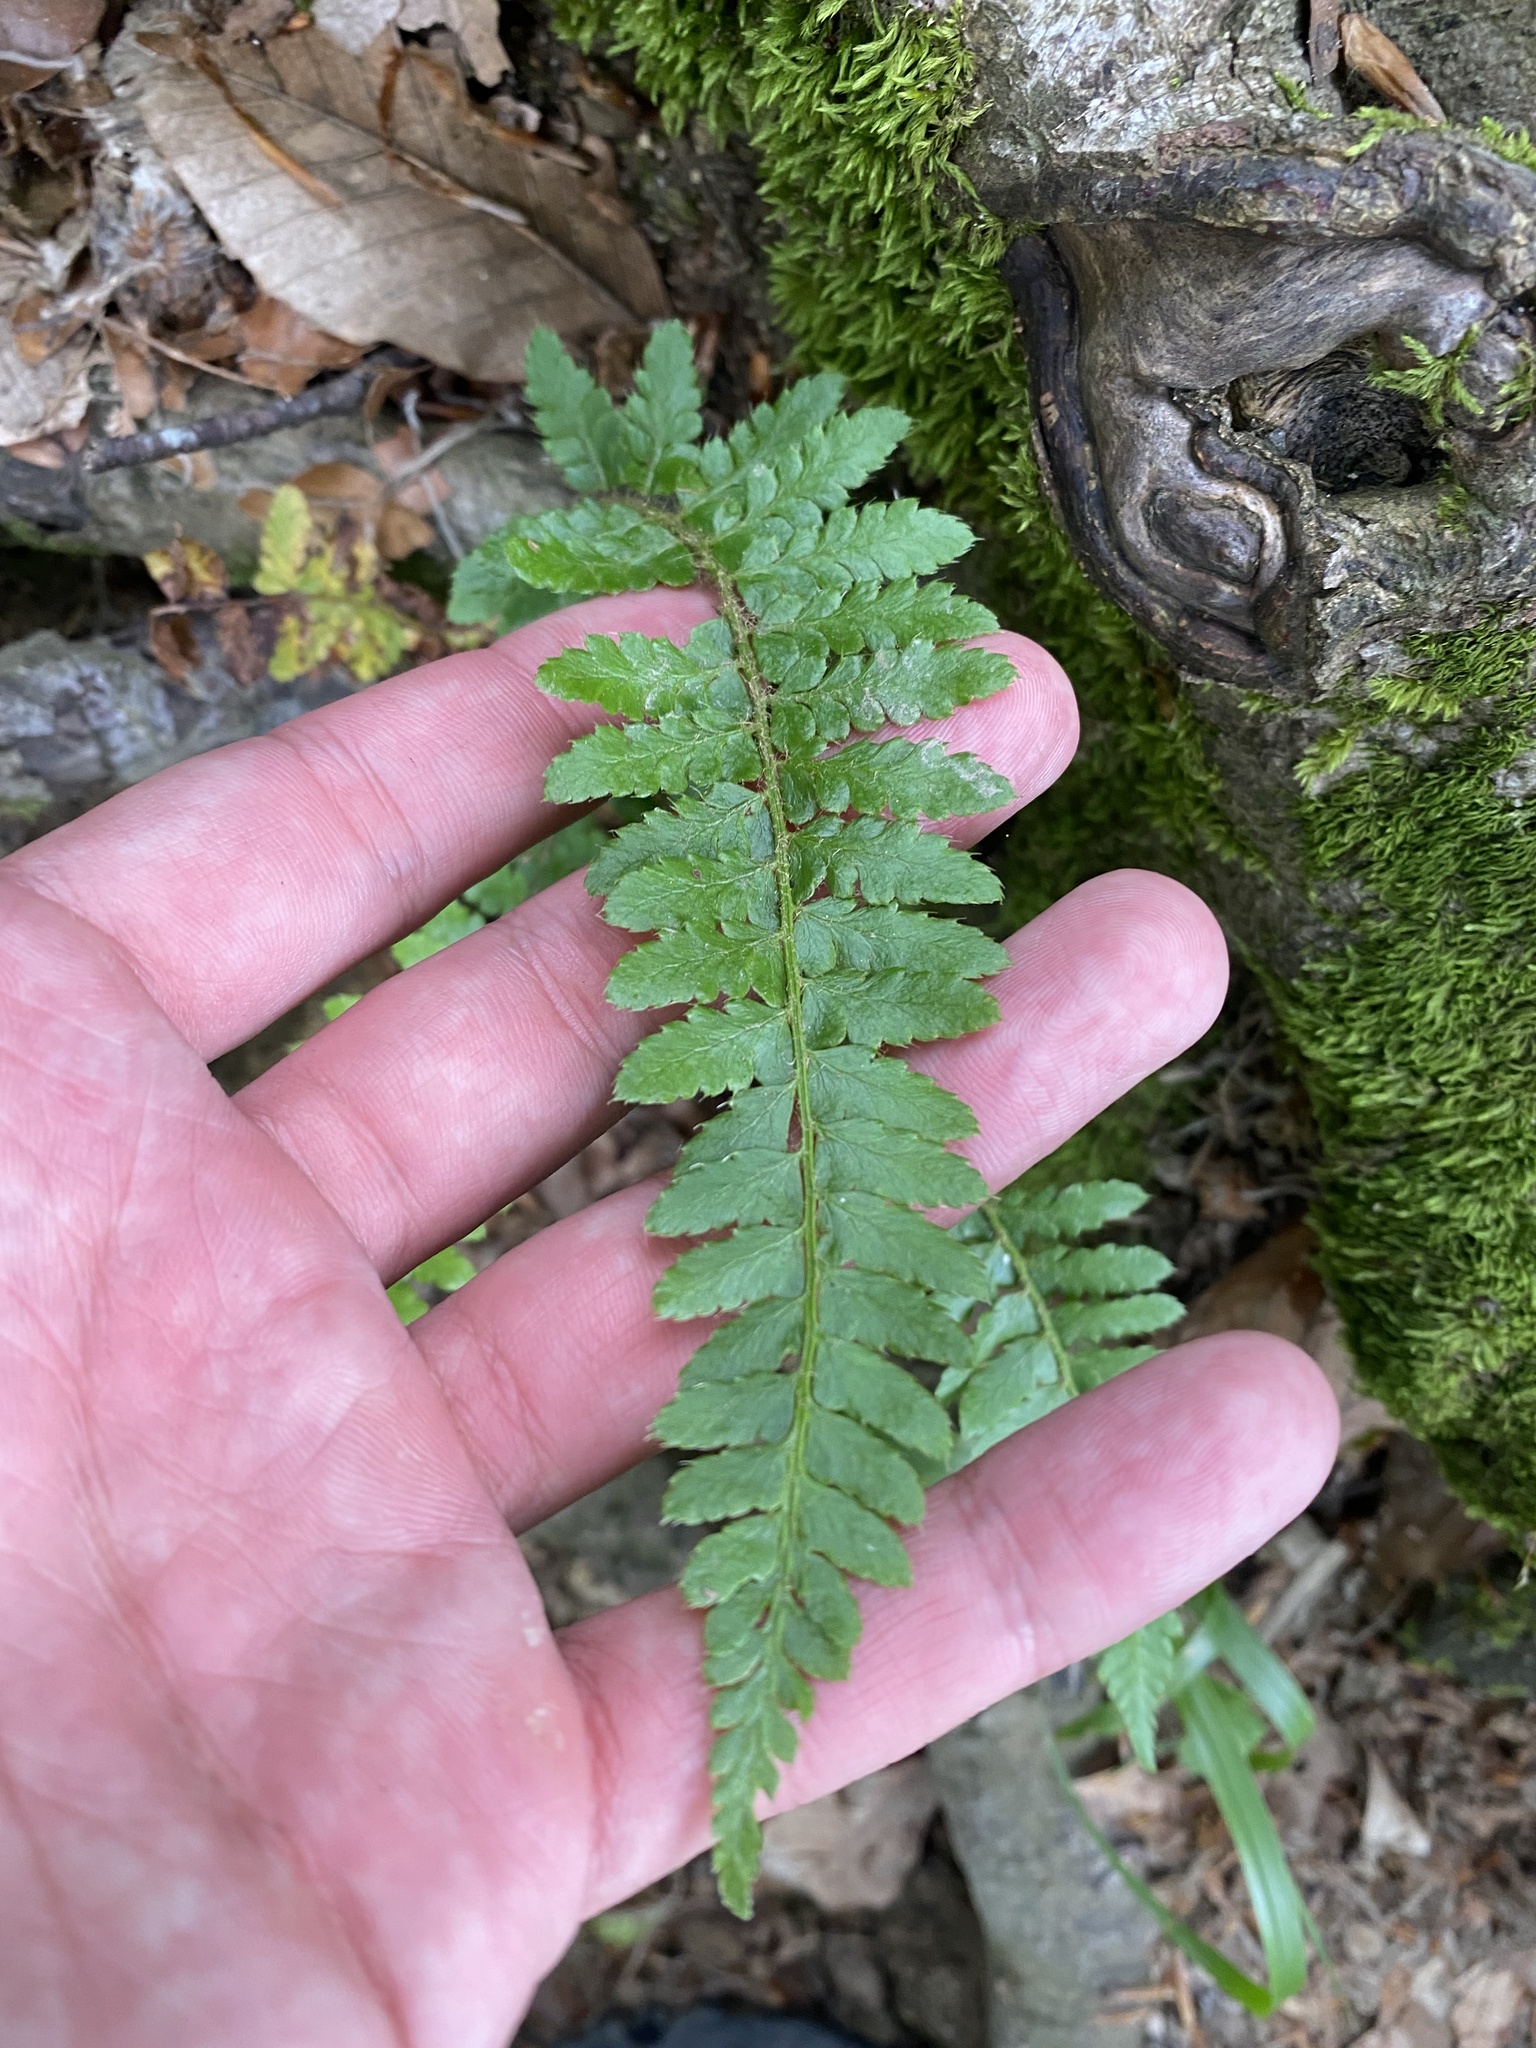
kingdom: Plantae
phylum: Tracheophyta
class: Polypodiopsida
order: Polypodiales
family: Dryopteridaceae
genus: Polystichum
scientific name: Polystichum braunii
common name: Braun's holly fern
